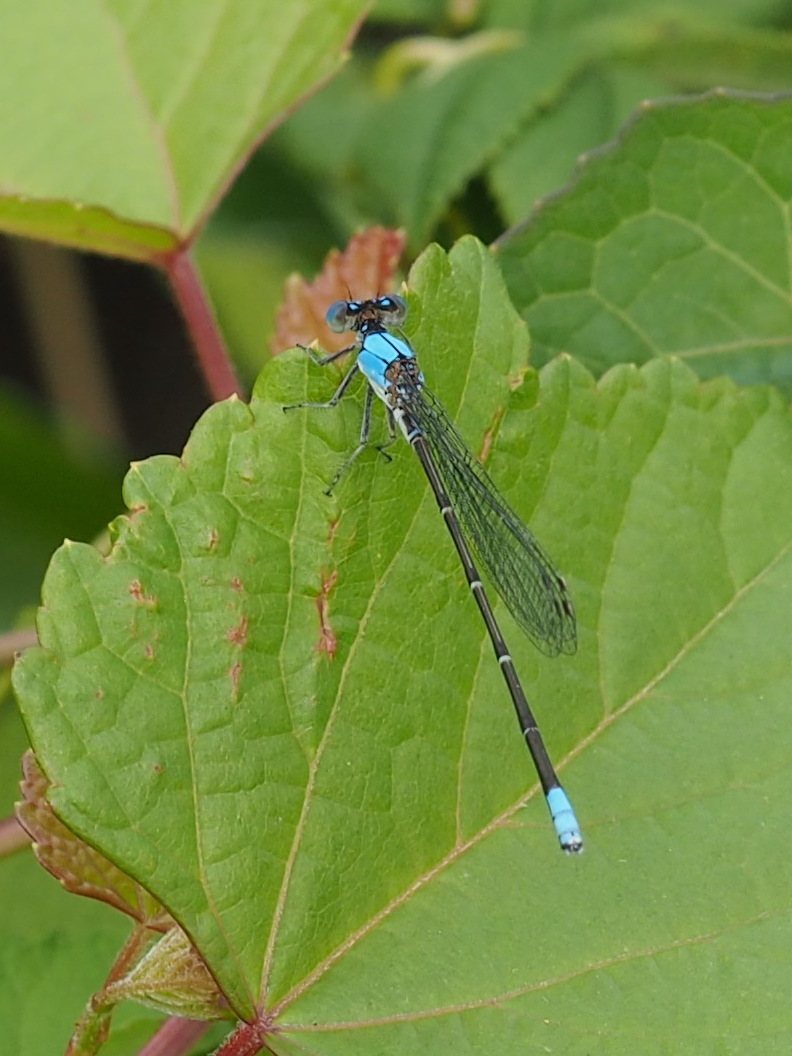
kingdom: Animalia
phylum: Arthropoda
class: Insecta
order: Odonata
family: Coenagrionidae
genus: Argia
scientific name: Argia apicalis
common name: Blue-fronted dancer
